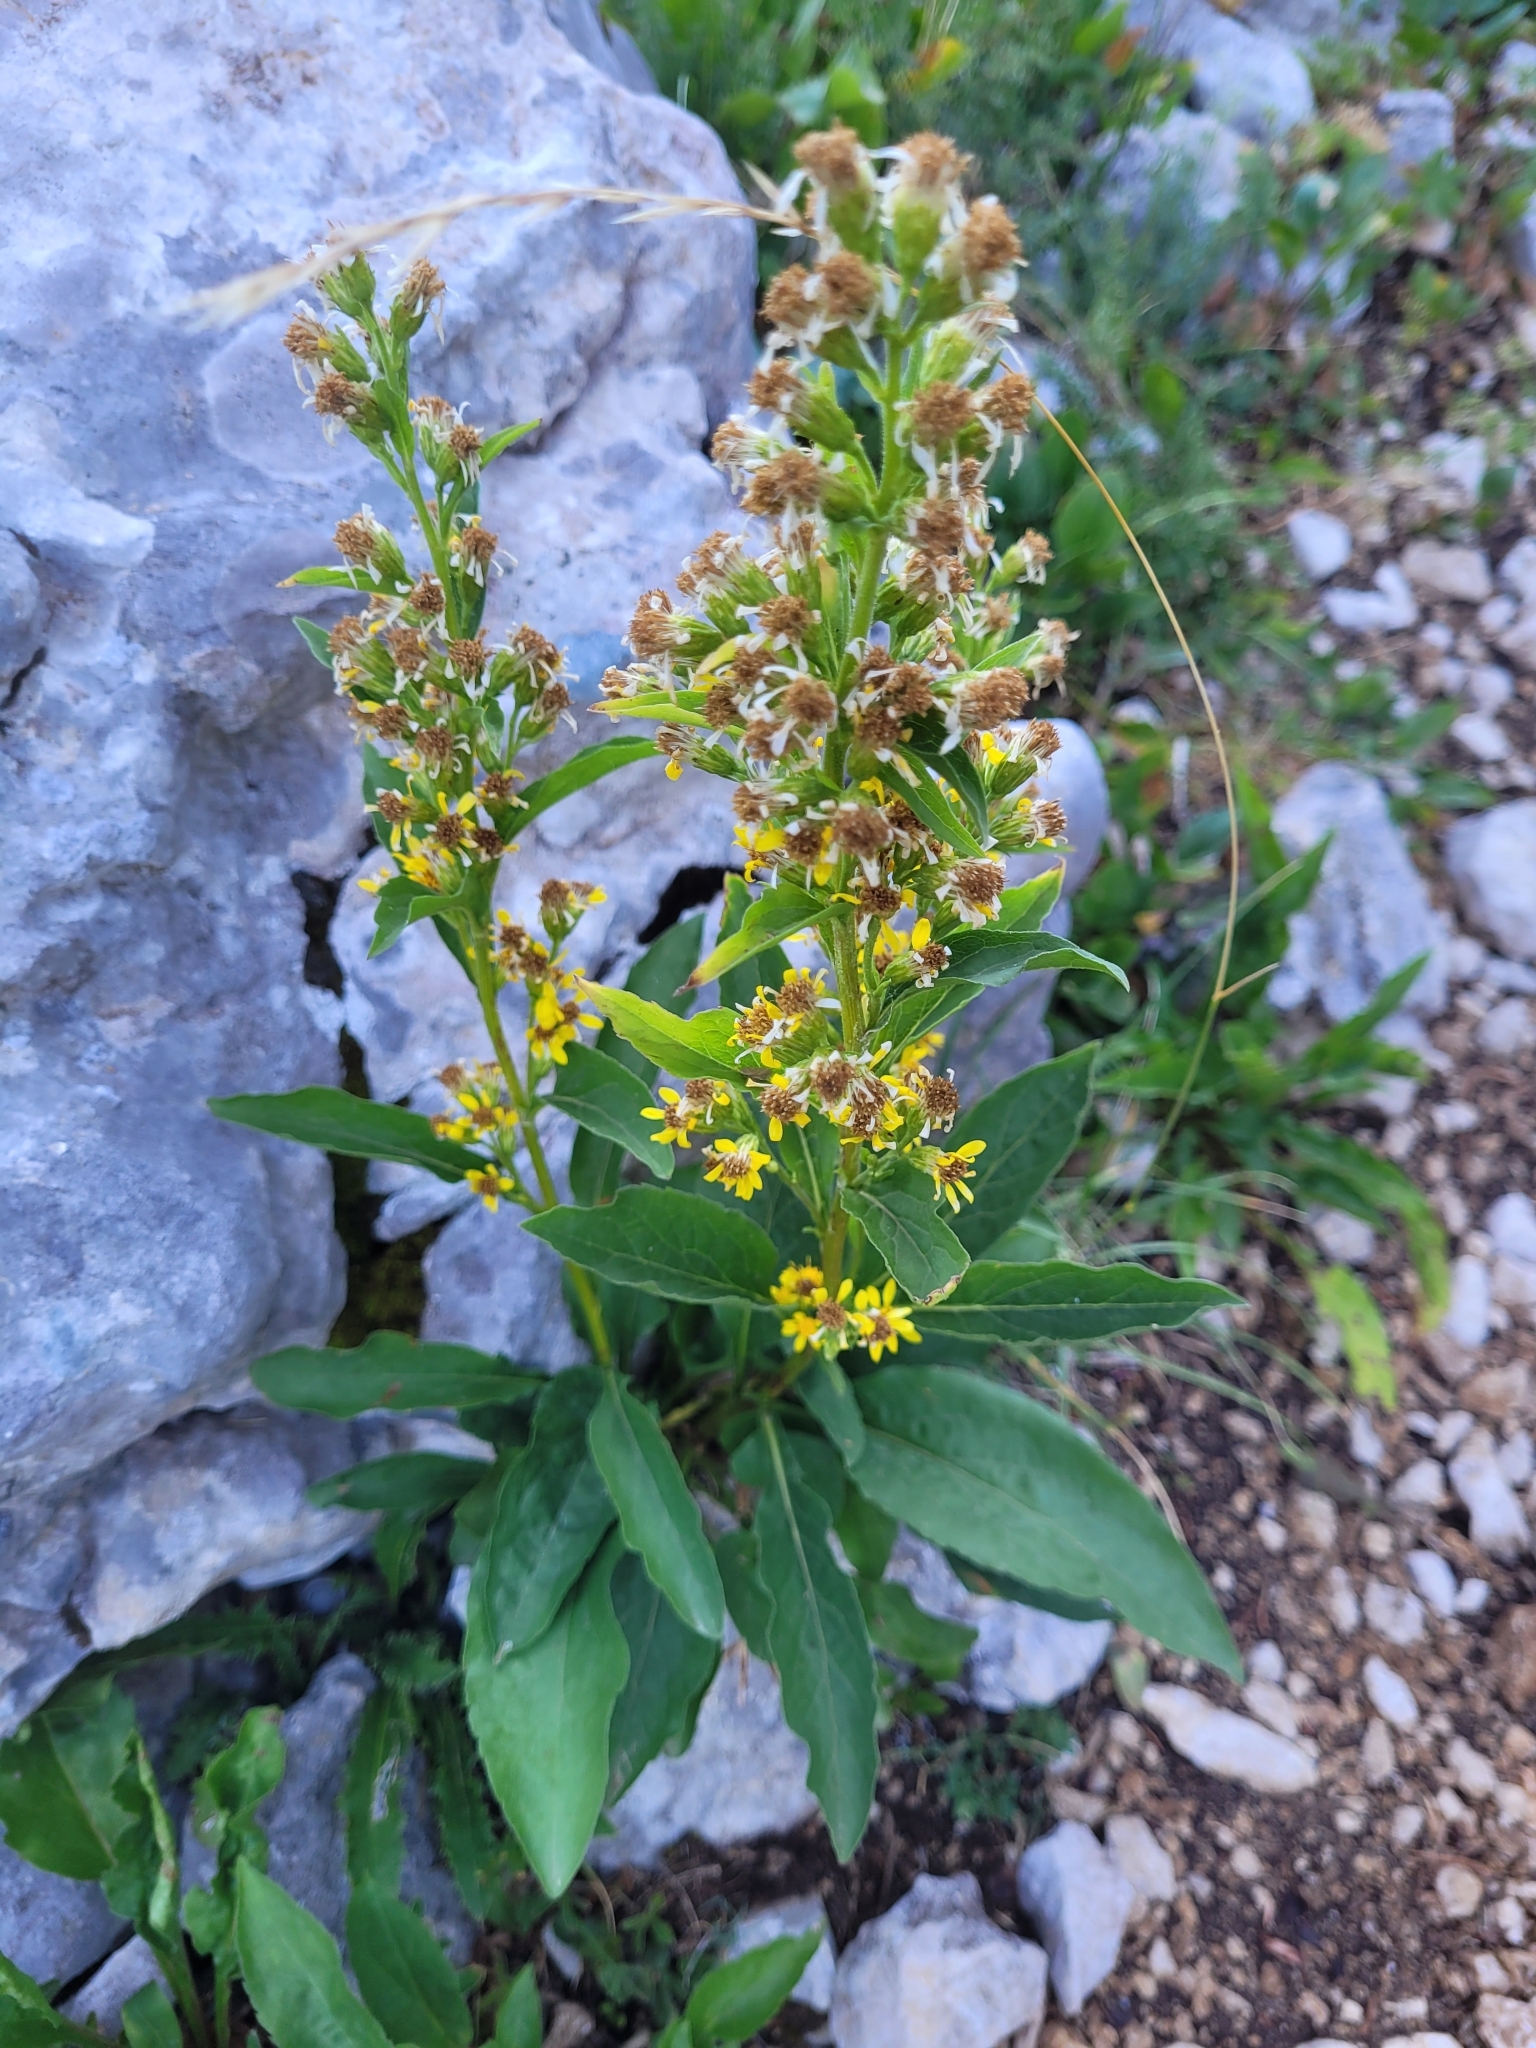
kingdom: Plantae
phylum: Tracheophyta
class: Magnoliopsida
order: Asterales
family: Asteraceae
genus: Solidago
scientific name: Solidago virgaurea
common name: Goldenrod
